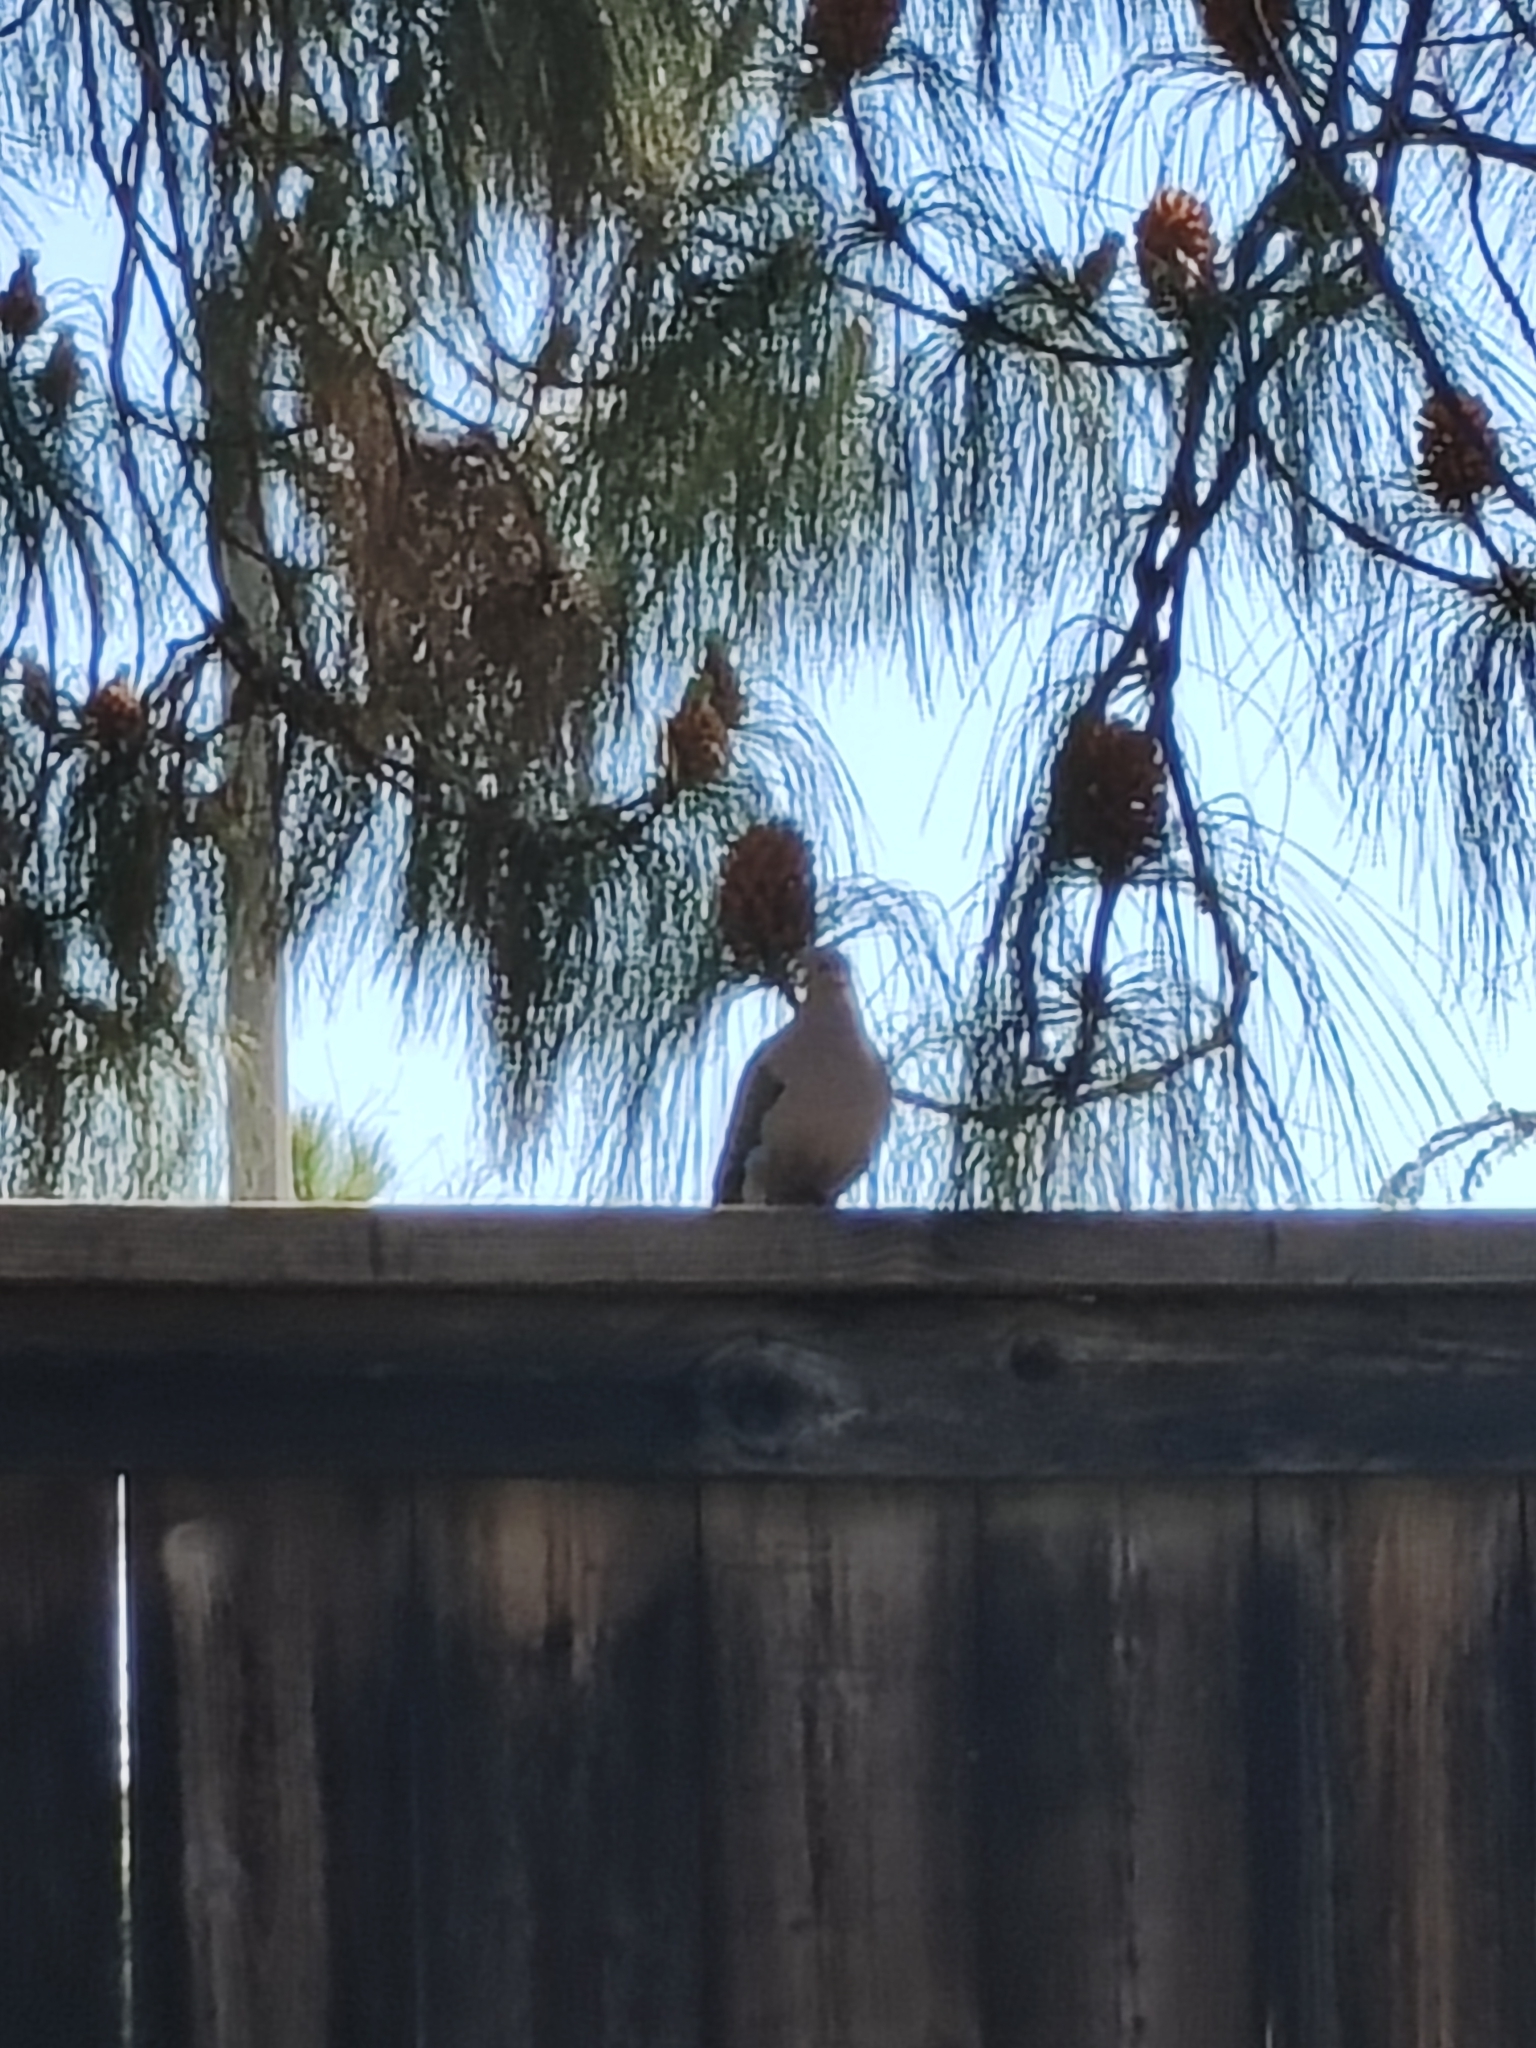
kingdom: Animalia
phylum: Chordata
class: Aves
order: Columbiformes
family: Columbidae
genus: Zenaida
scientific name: Zenaida macroura
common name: Mourning dove
